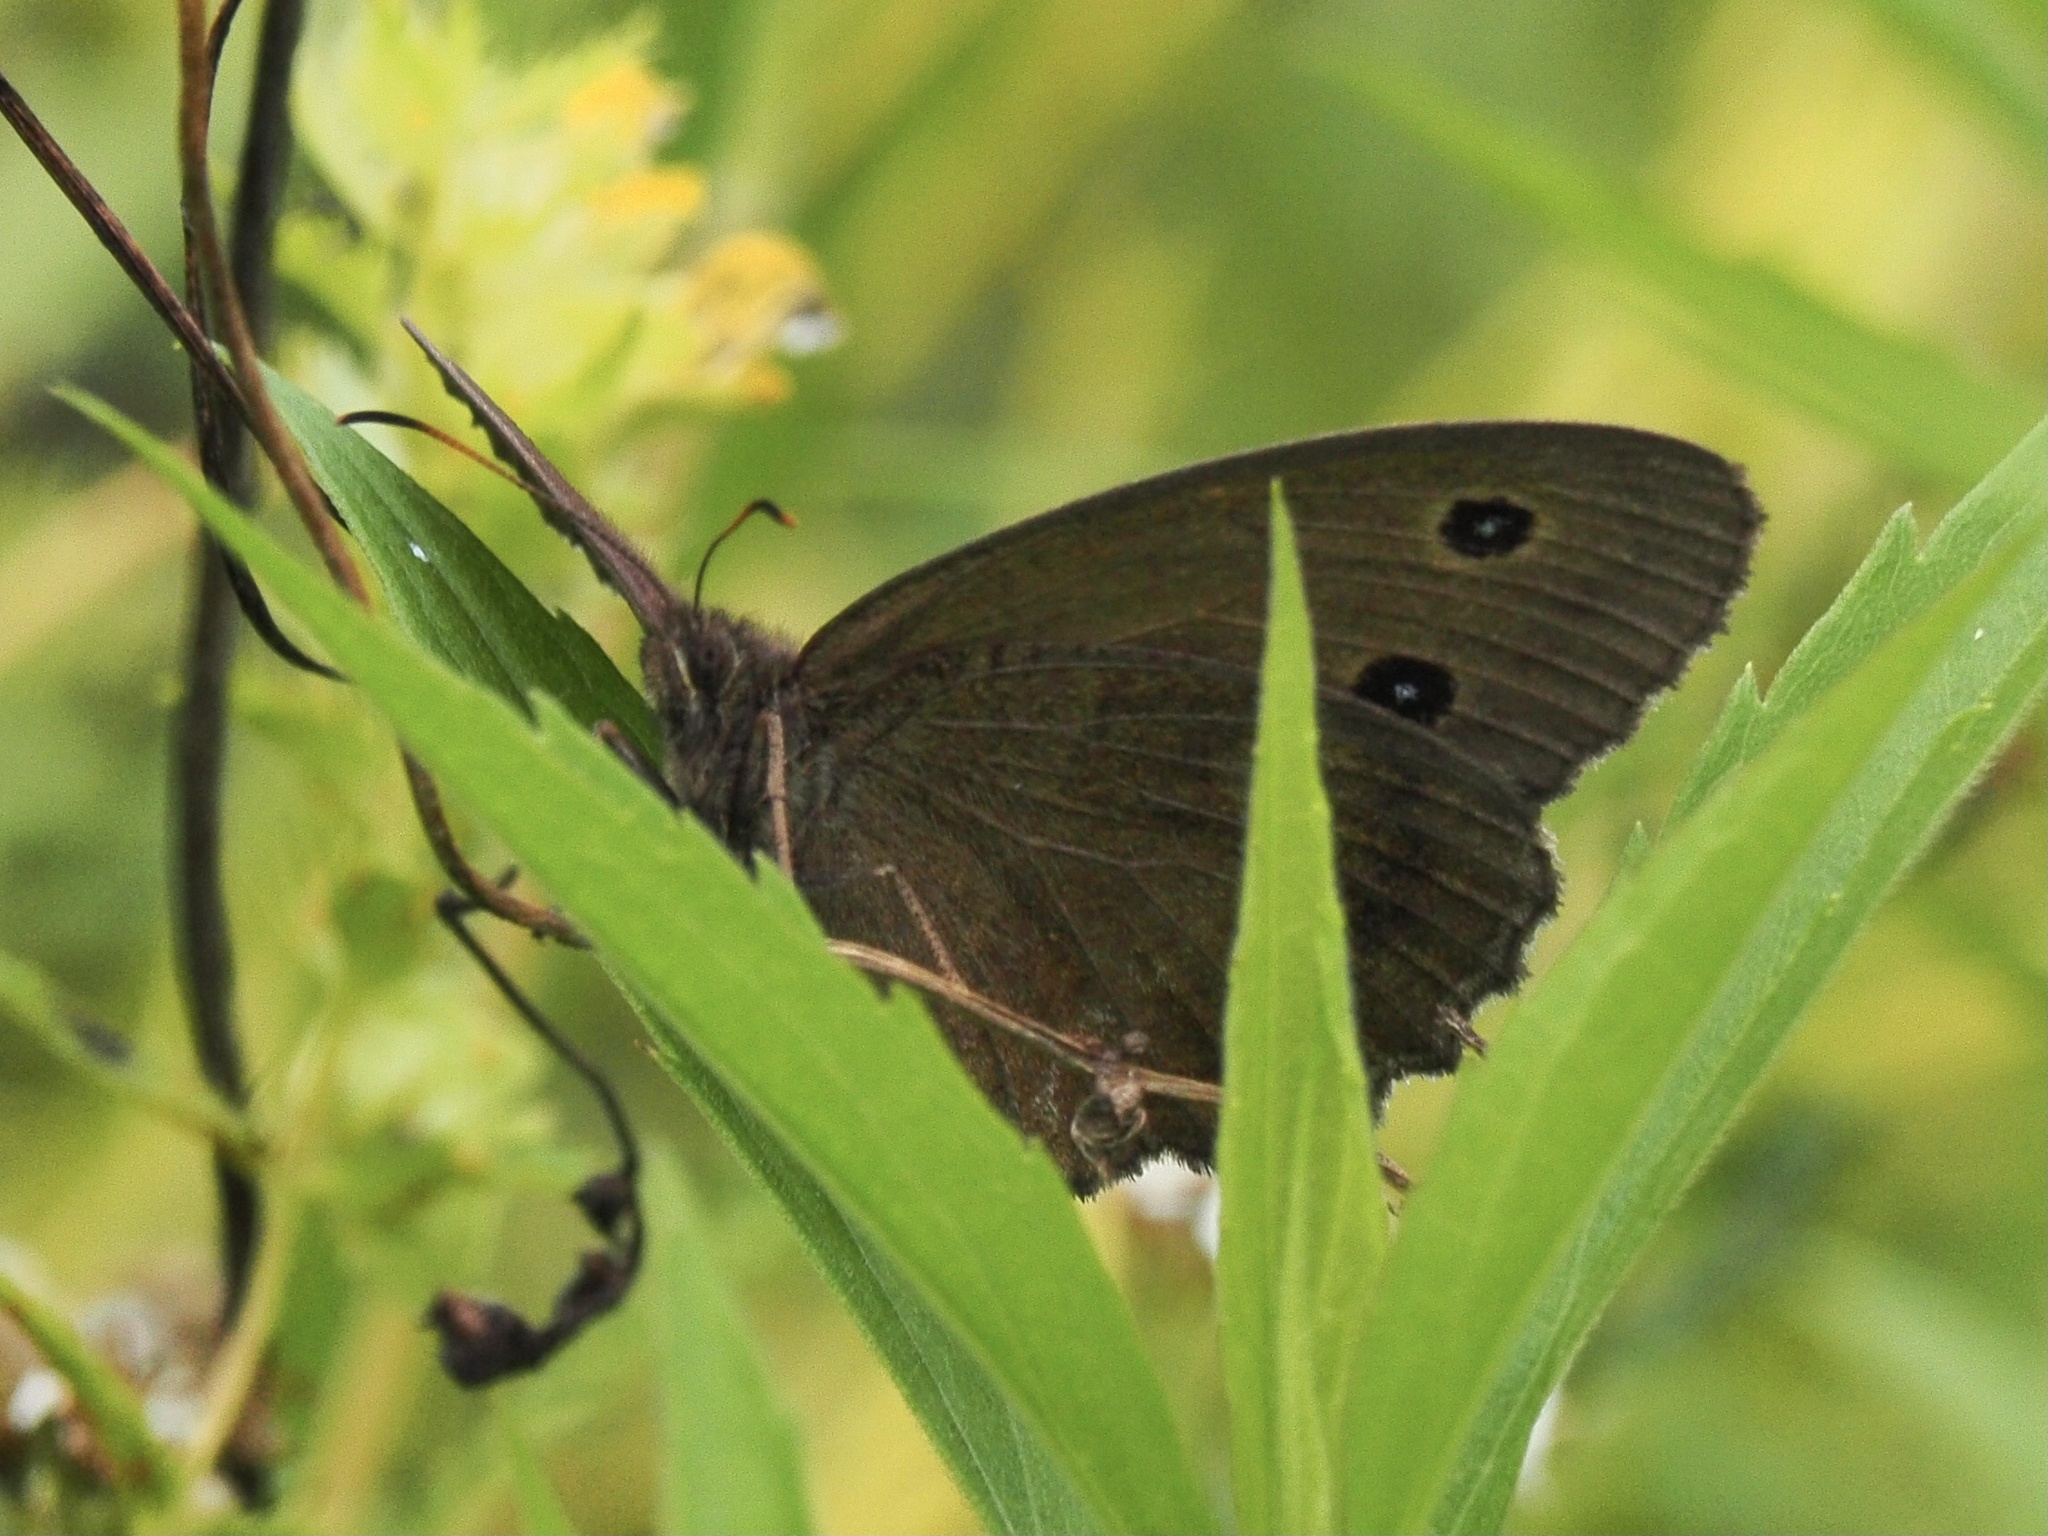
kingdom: Animalia
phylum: Arthropoda
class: Insecta
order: Lepidoptera
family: Nymphalidae
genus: Minois
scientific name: Minois dryas
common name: Dryad
